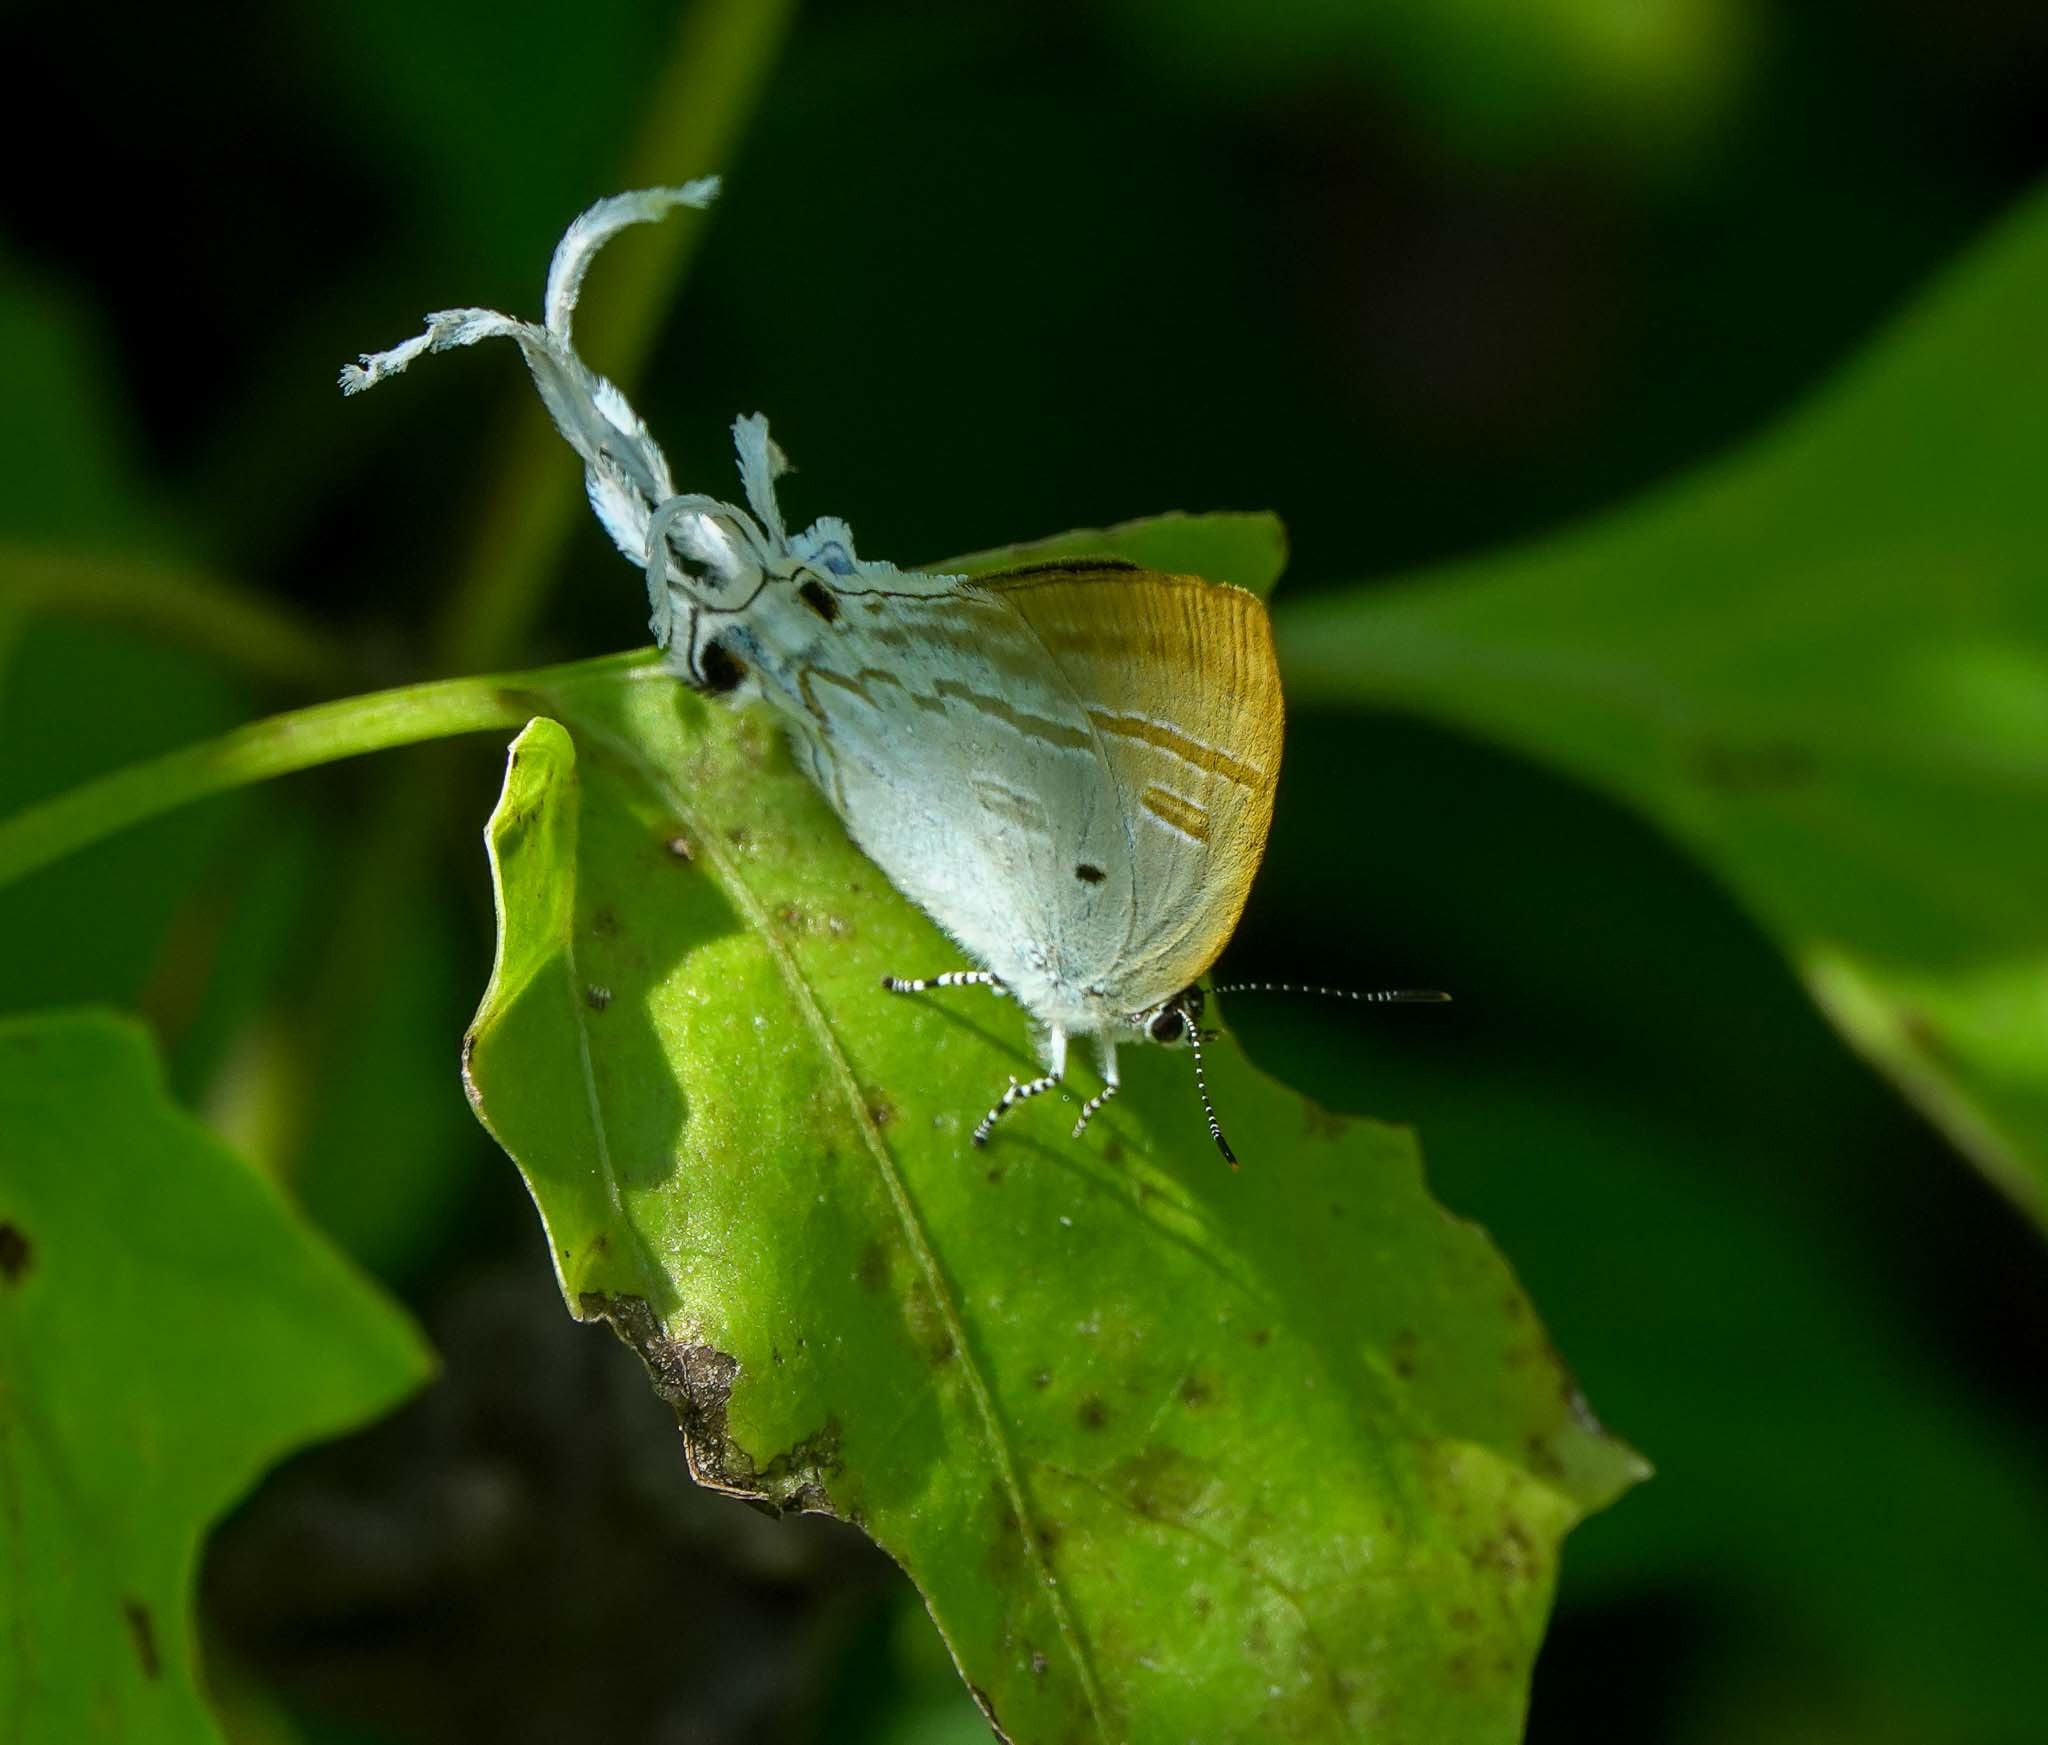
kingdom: Animalia
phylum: Arthropoda
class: Insecta
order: Lepidoptera
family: Lycaenidae
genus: Zeltus
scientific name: Zeltus amasa
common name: Fluffy tit
